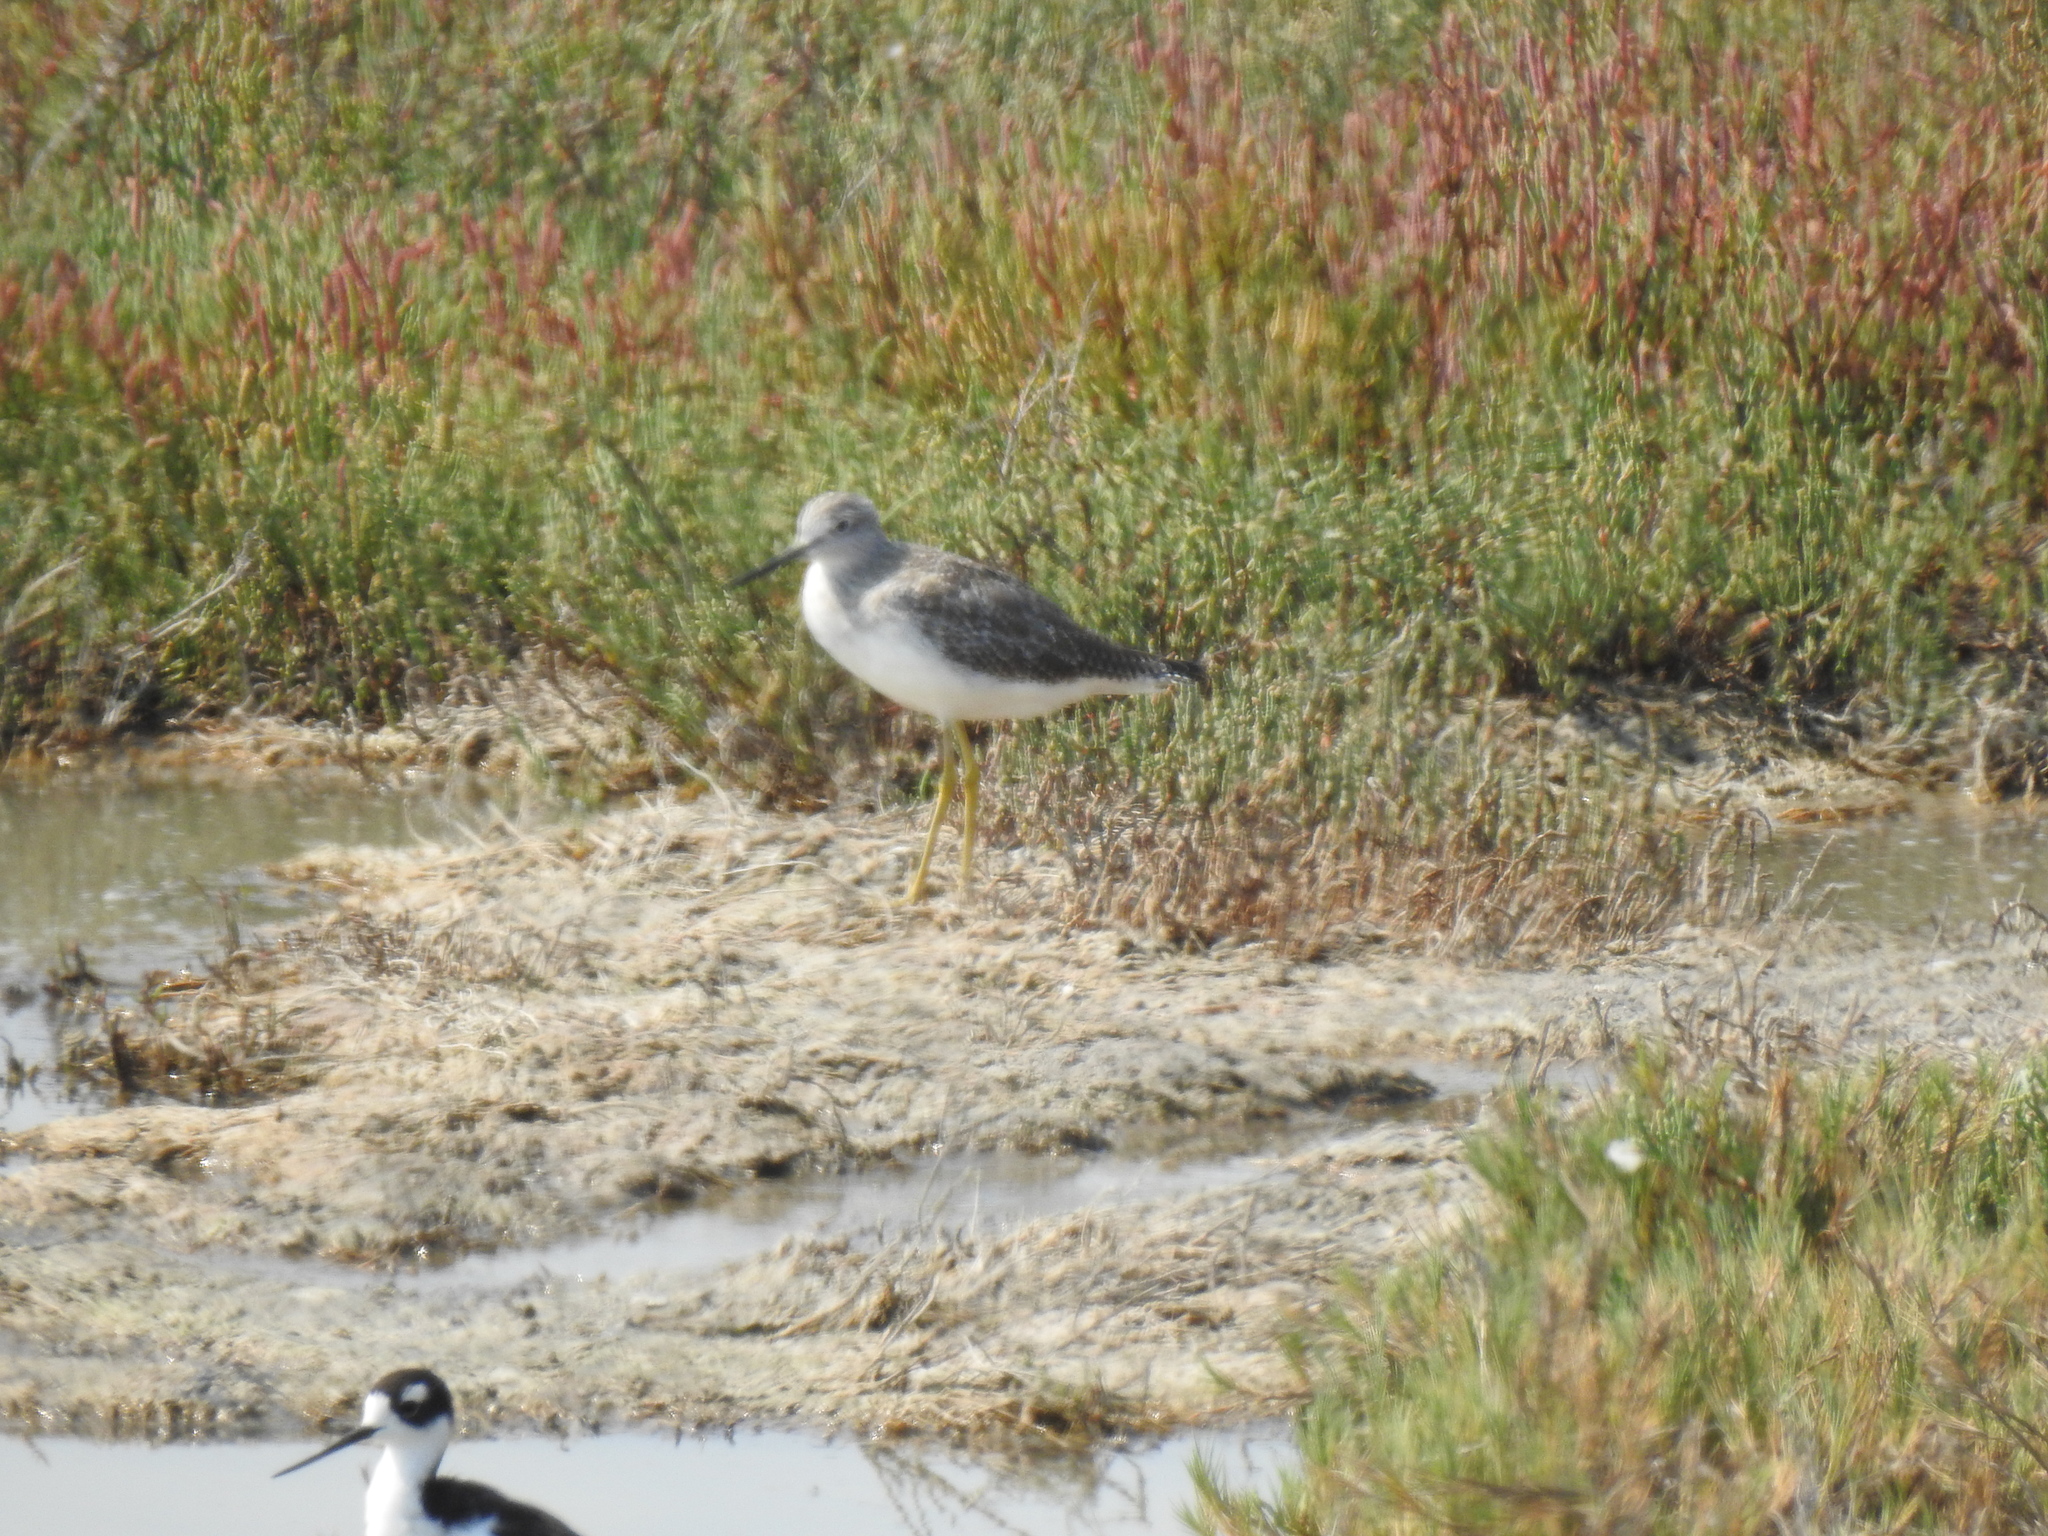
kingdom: Animalia
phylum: Chordata
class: Aves
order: Charadriiformes
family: Scolopacidae
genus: Tringa
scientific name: Tringa melanoleuca
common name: Greater yellowlegs
